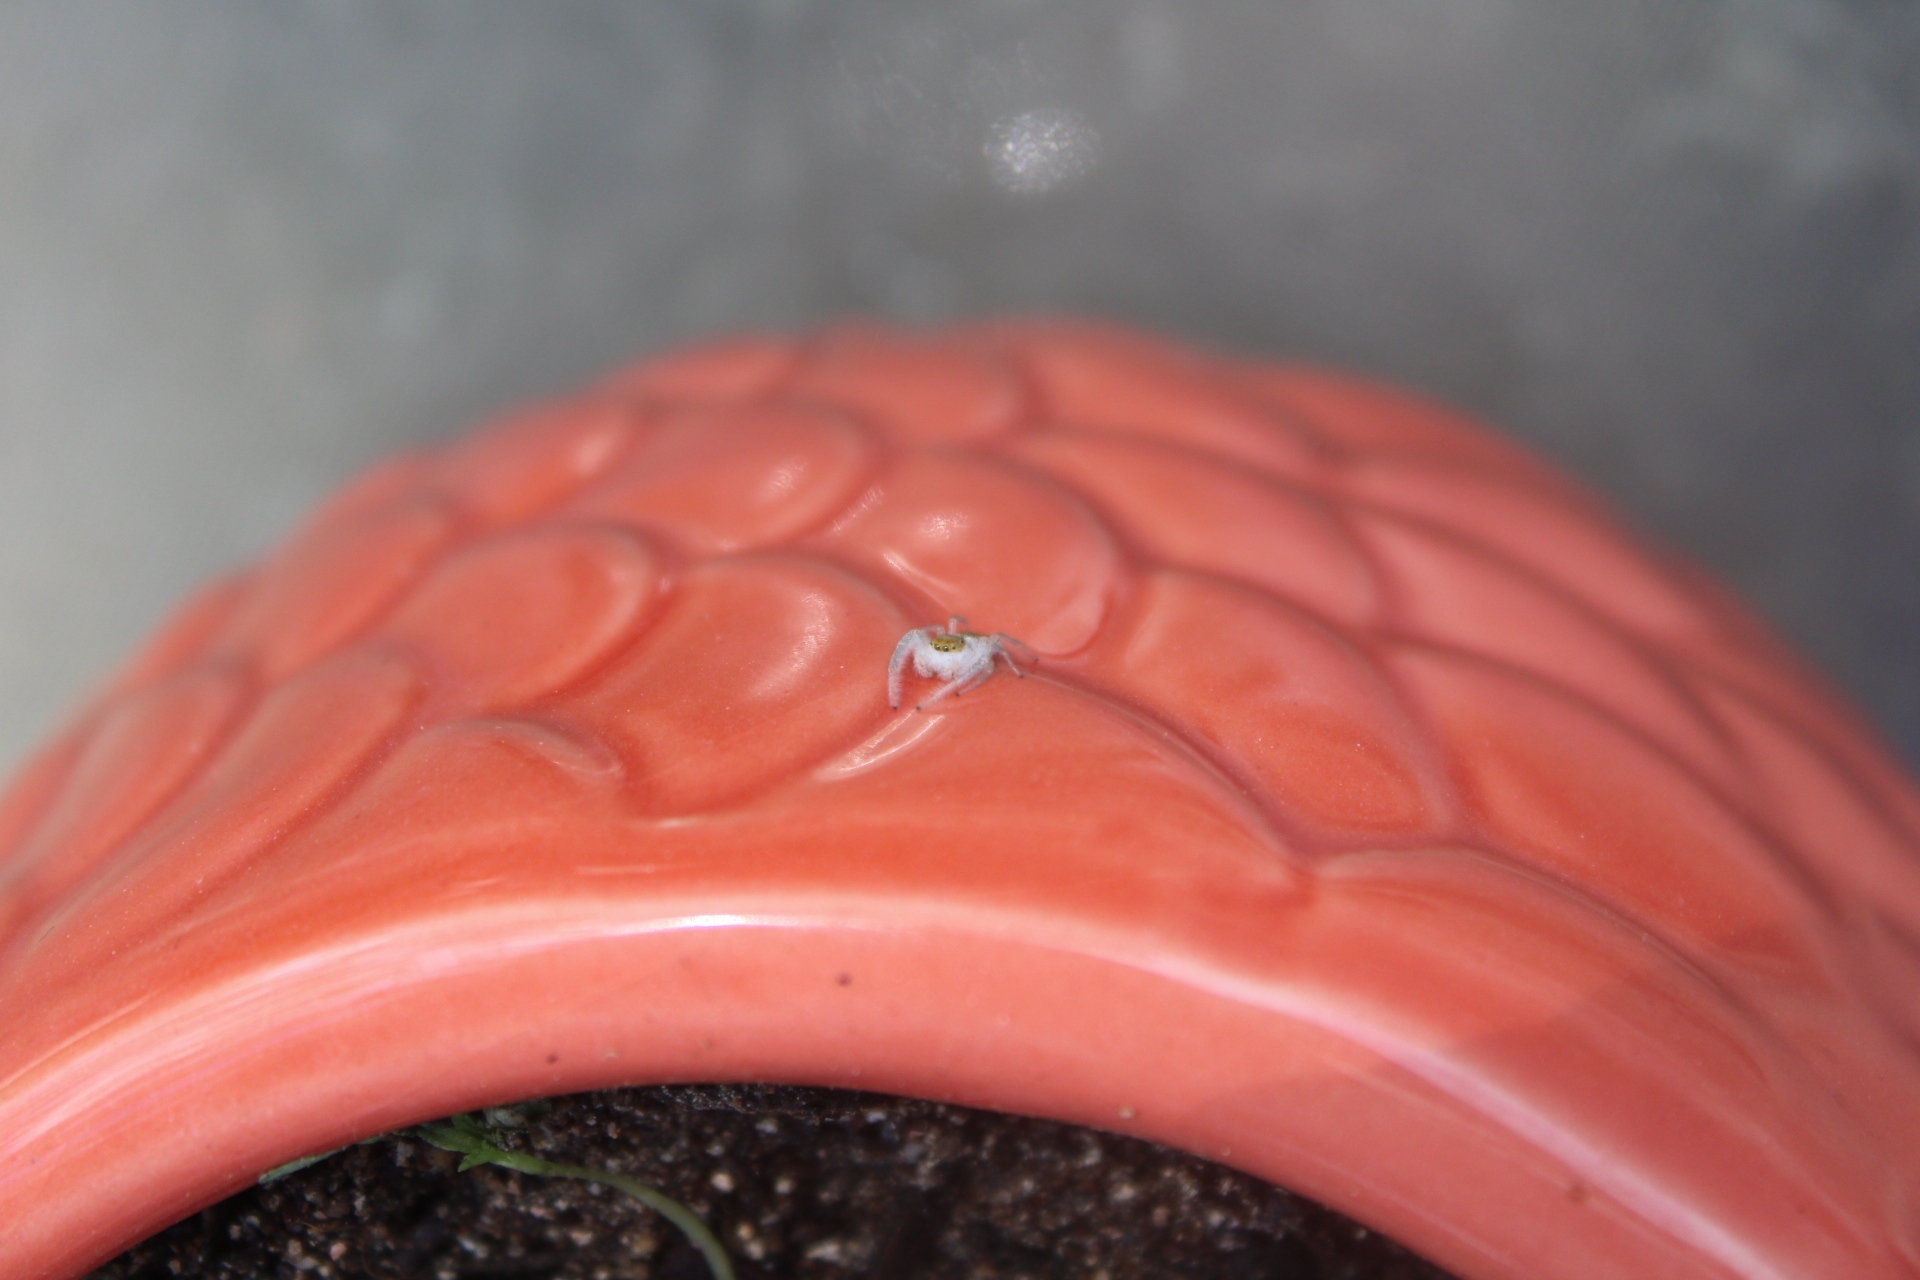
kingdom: Animalia
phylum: Arthropoda
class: Arachnida
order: Araneae
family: Salticidae
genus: Hentzia
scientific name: Hentzia mitrata
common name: White-jawed jumping spider
